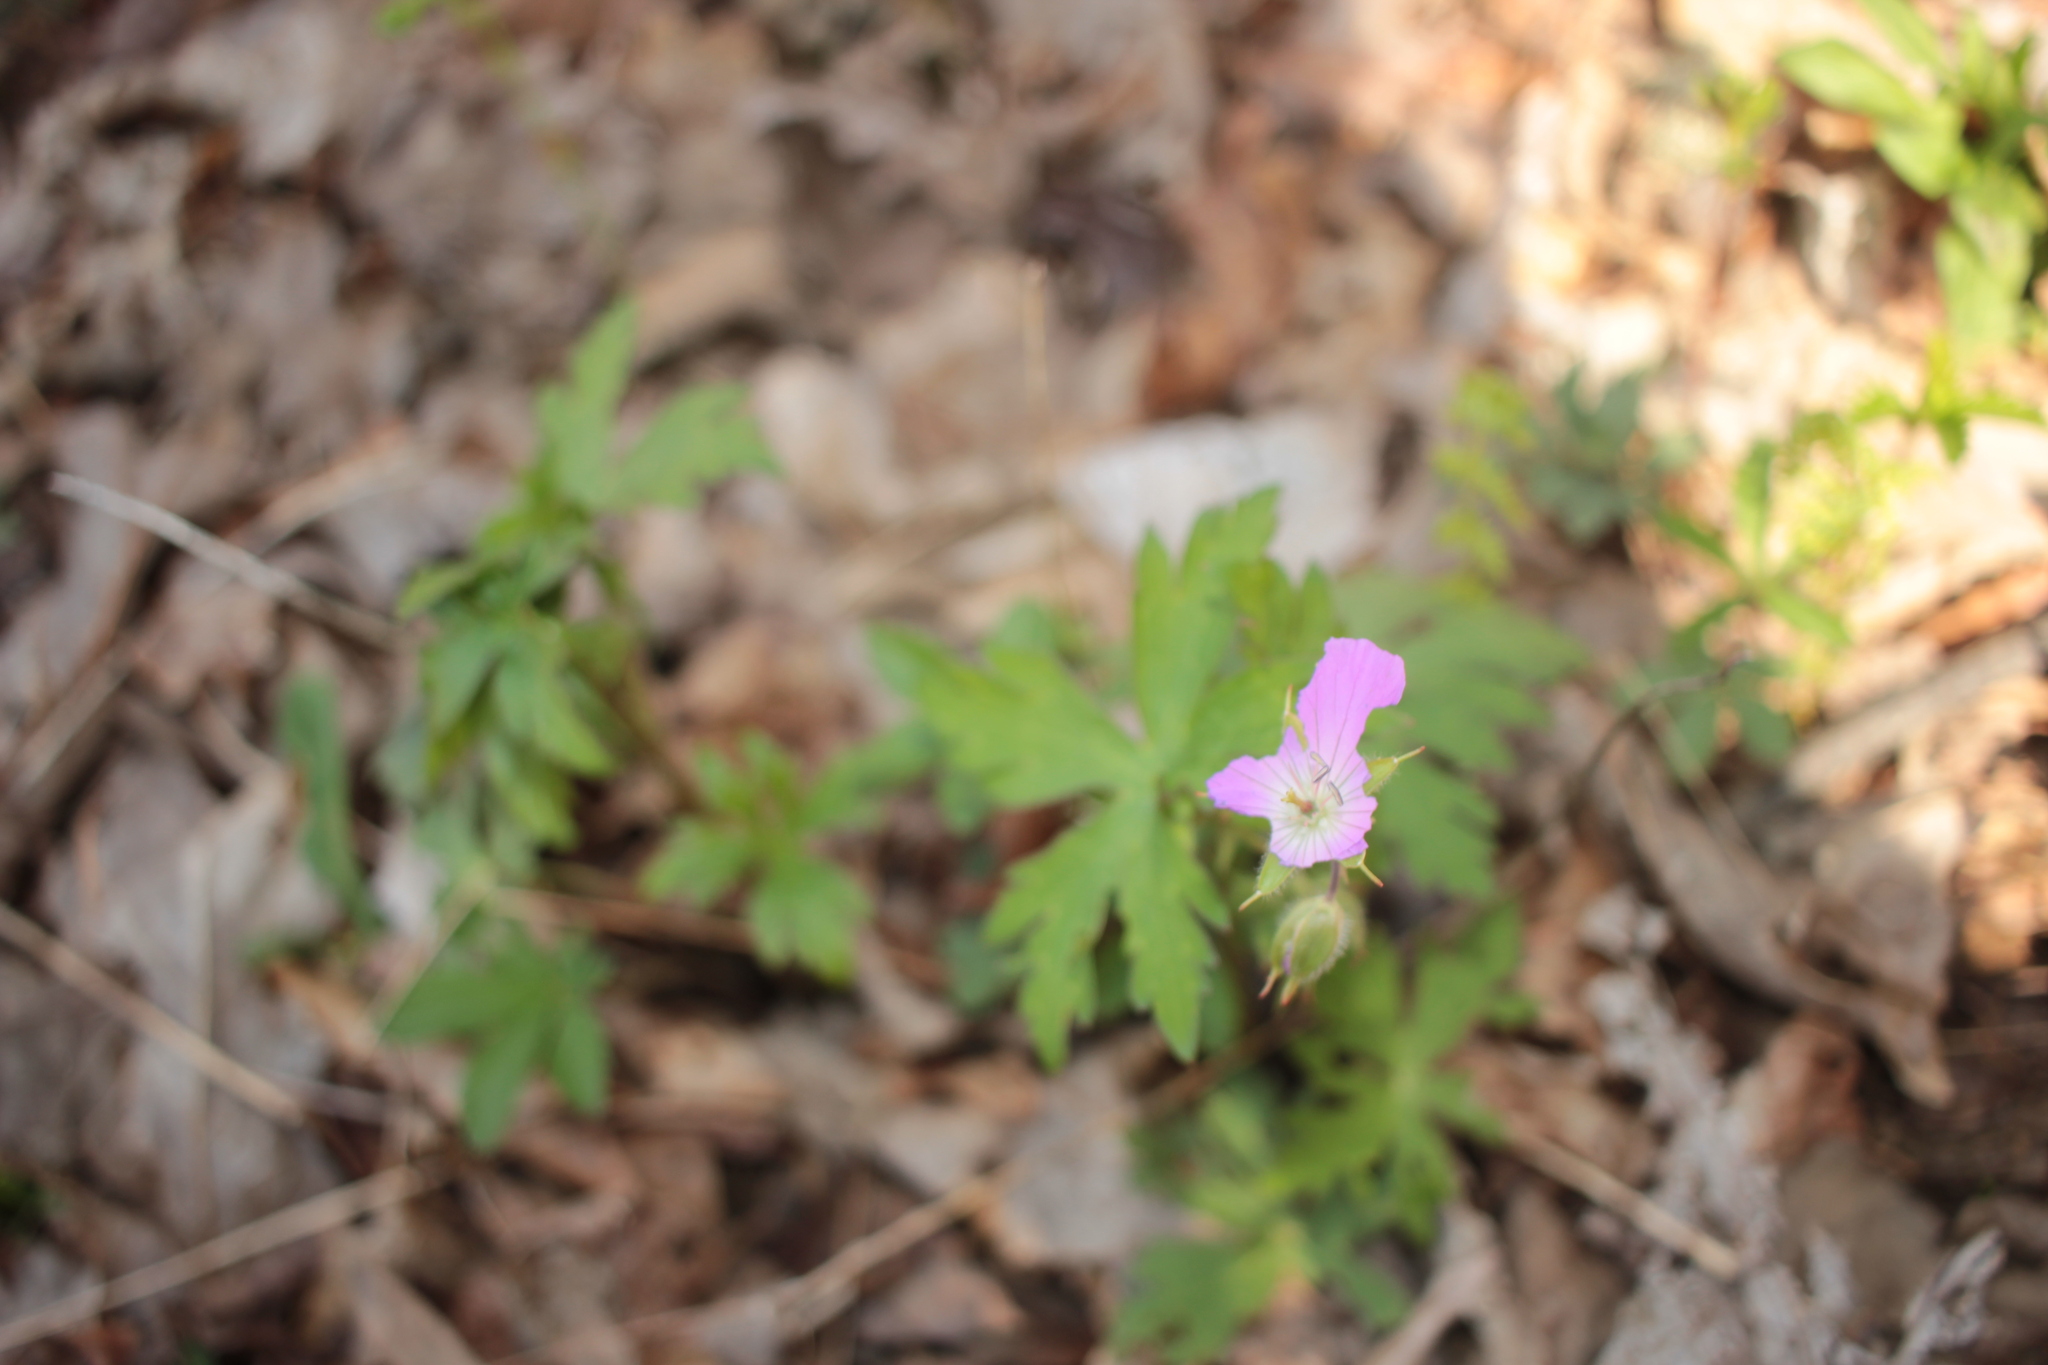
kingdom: Plantae
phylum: Tracheophyta
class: Magnoliopsida
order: Geraniales
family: Geraniaceae
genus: Geranium
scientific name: Geranium maculatum
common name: Spotted geranium
